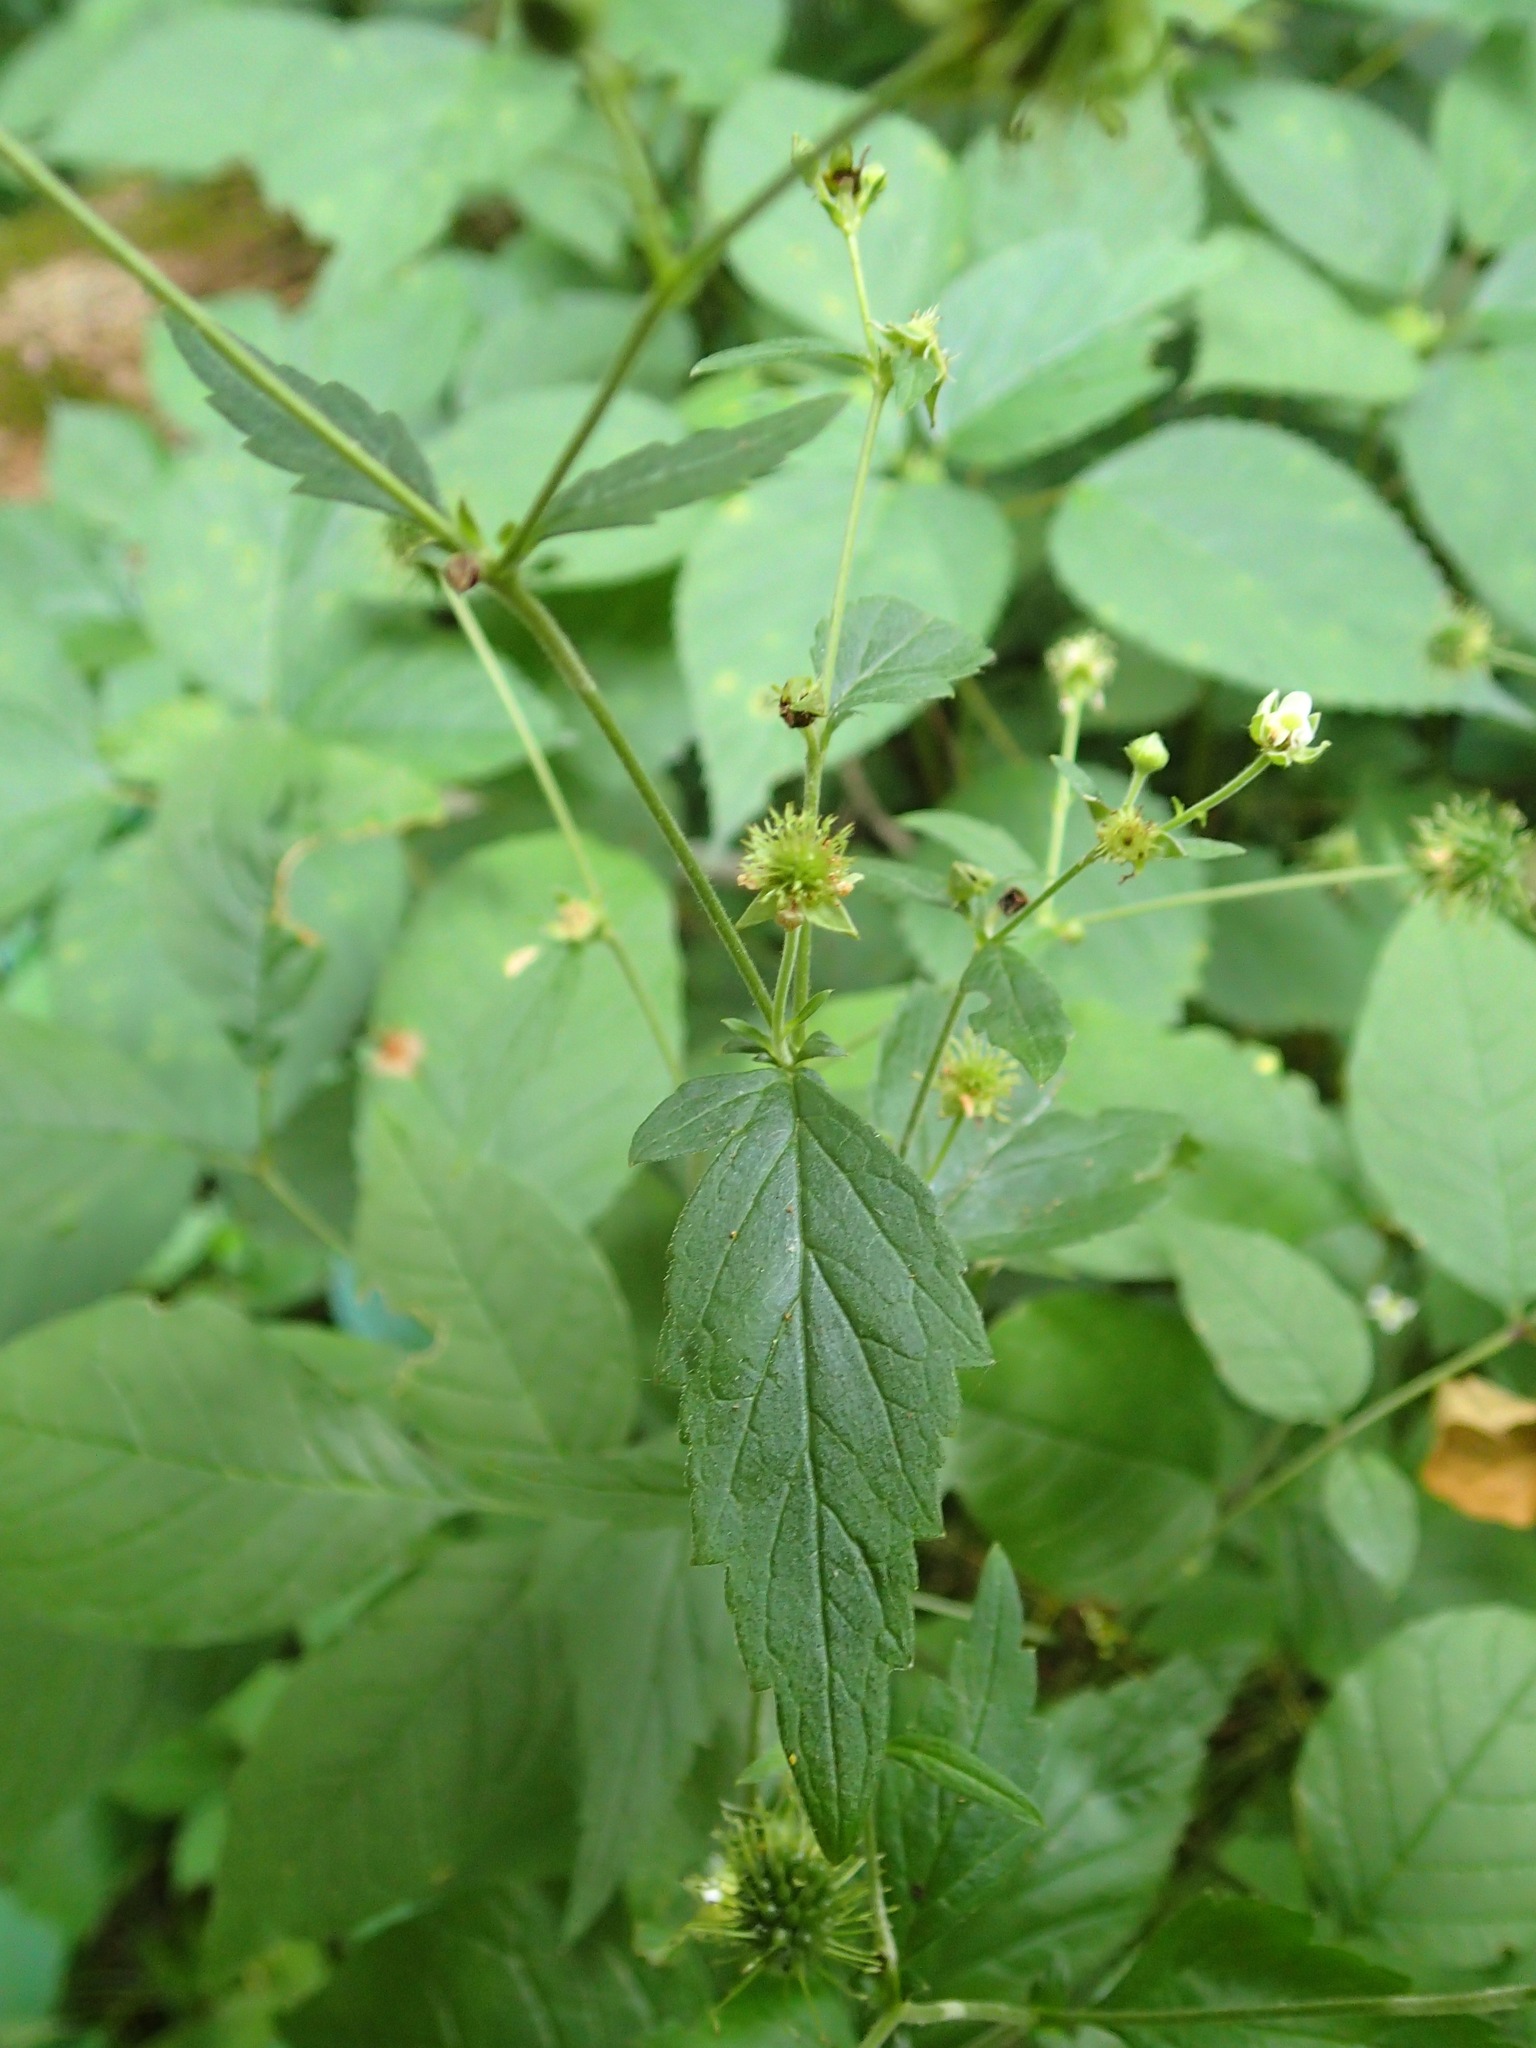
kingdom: Plantae
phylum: Tracheophyta
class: Magnoliopsida
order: Rosales
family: Rosaceae
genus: Geum
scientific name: Geum canadense
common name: White avens
